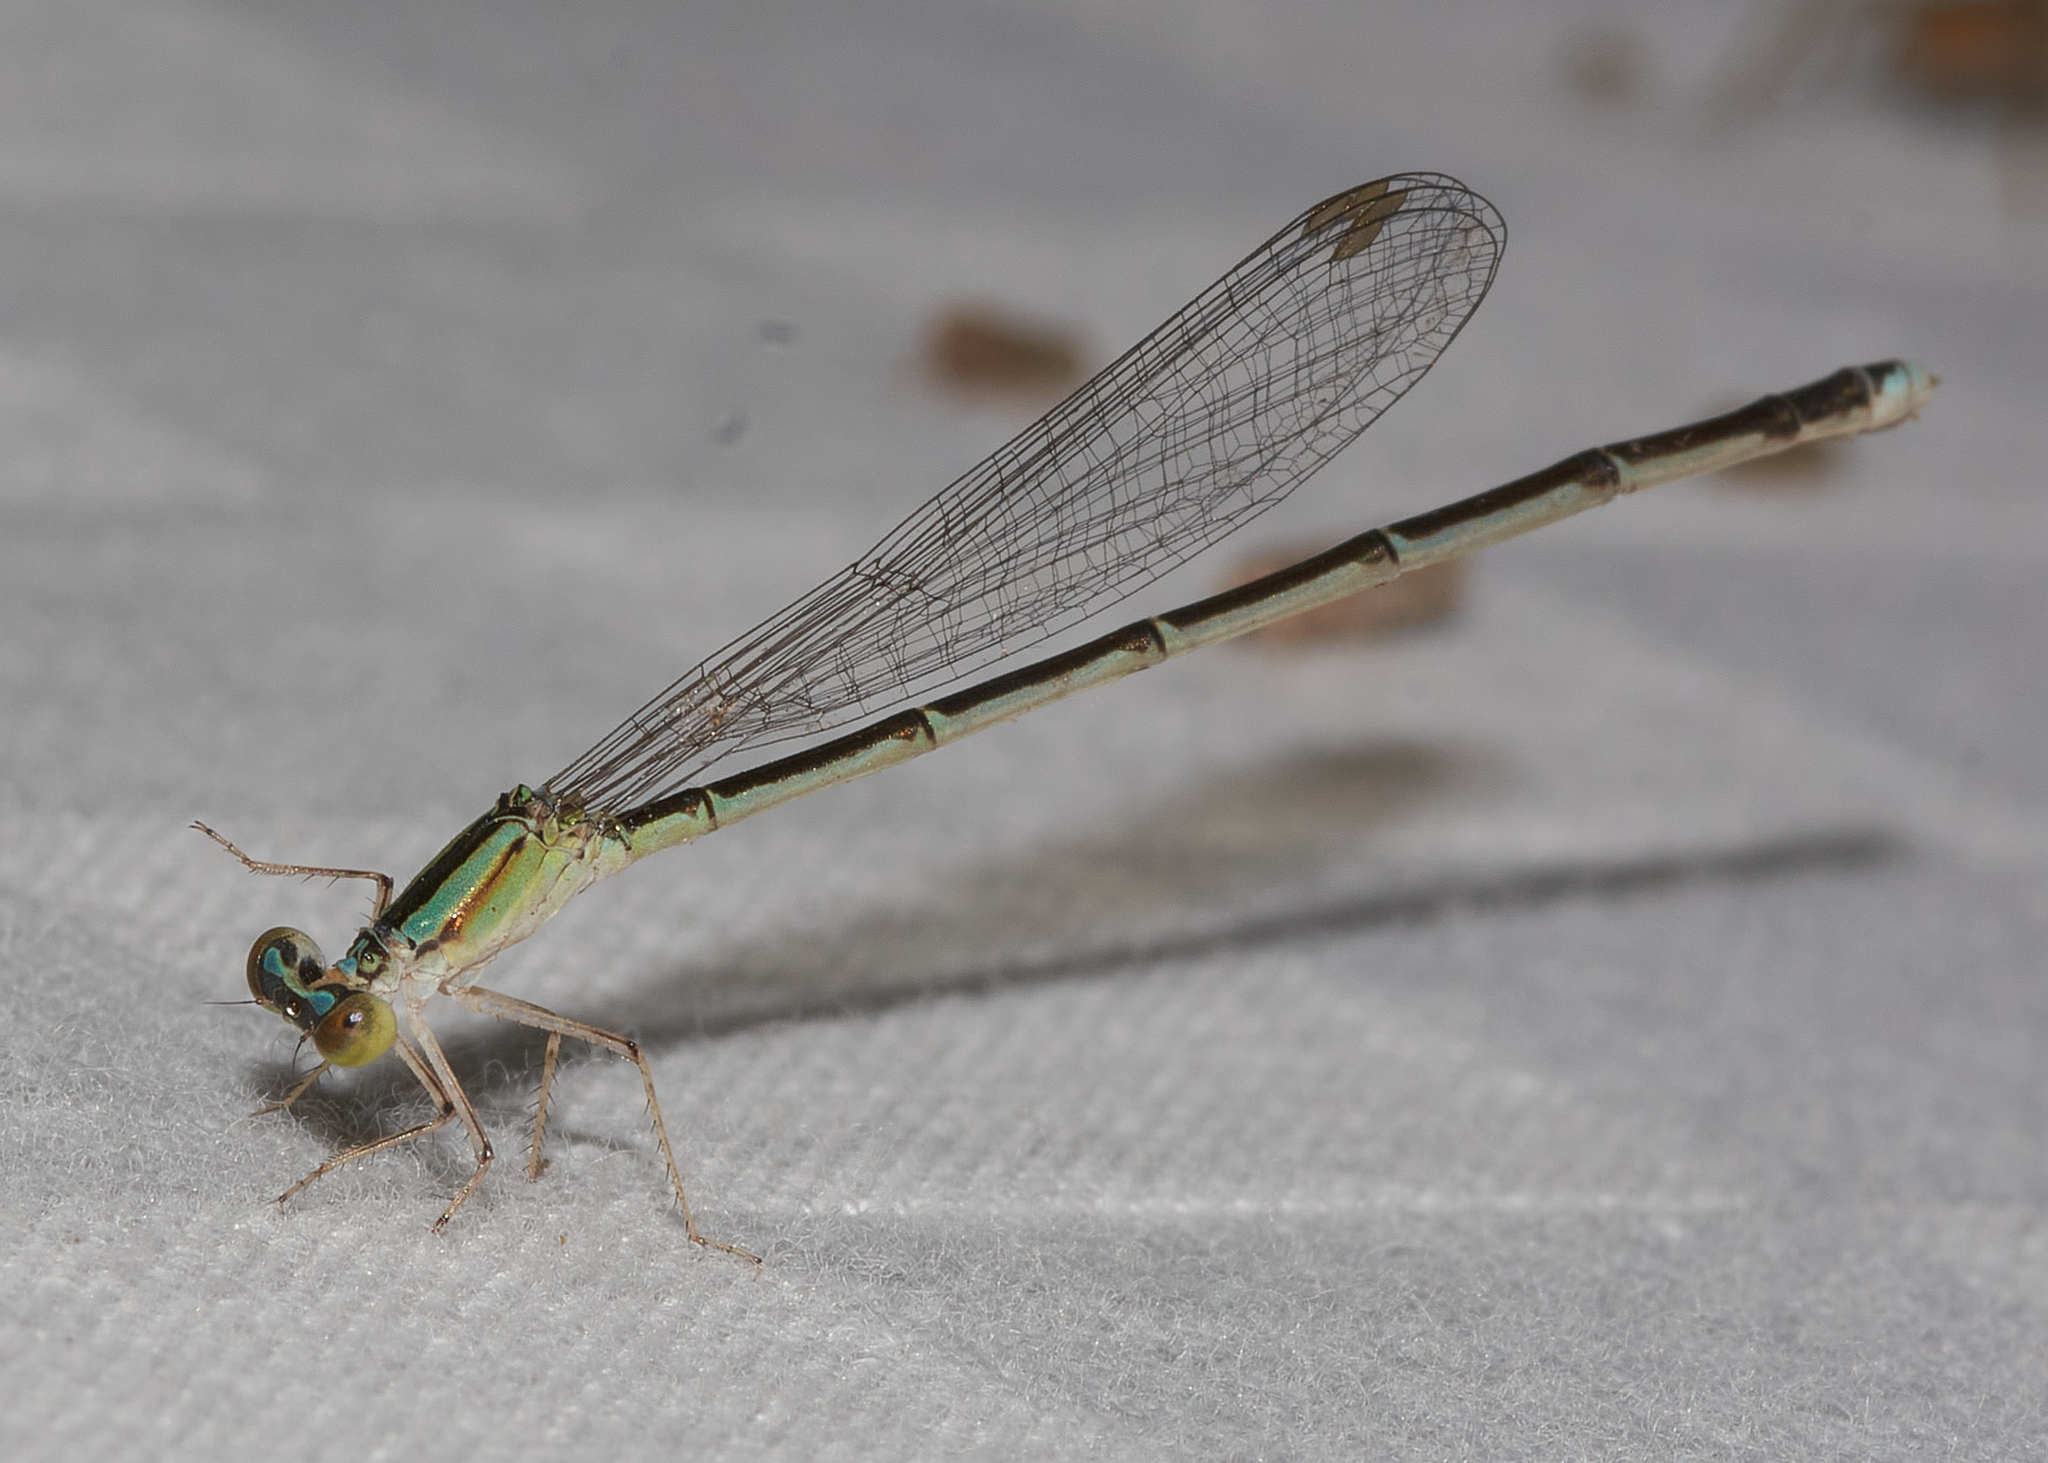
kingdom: Animalia
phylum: Arthropoda
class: Insecta
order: Odonata
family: Coenagrionidae
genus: Enallagma
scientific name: Enallagma vesperum
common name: Vesper bluet
